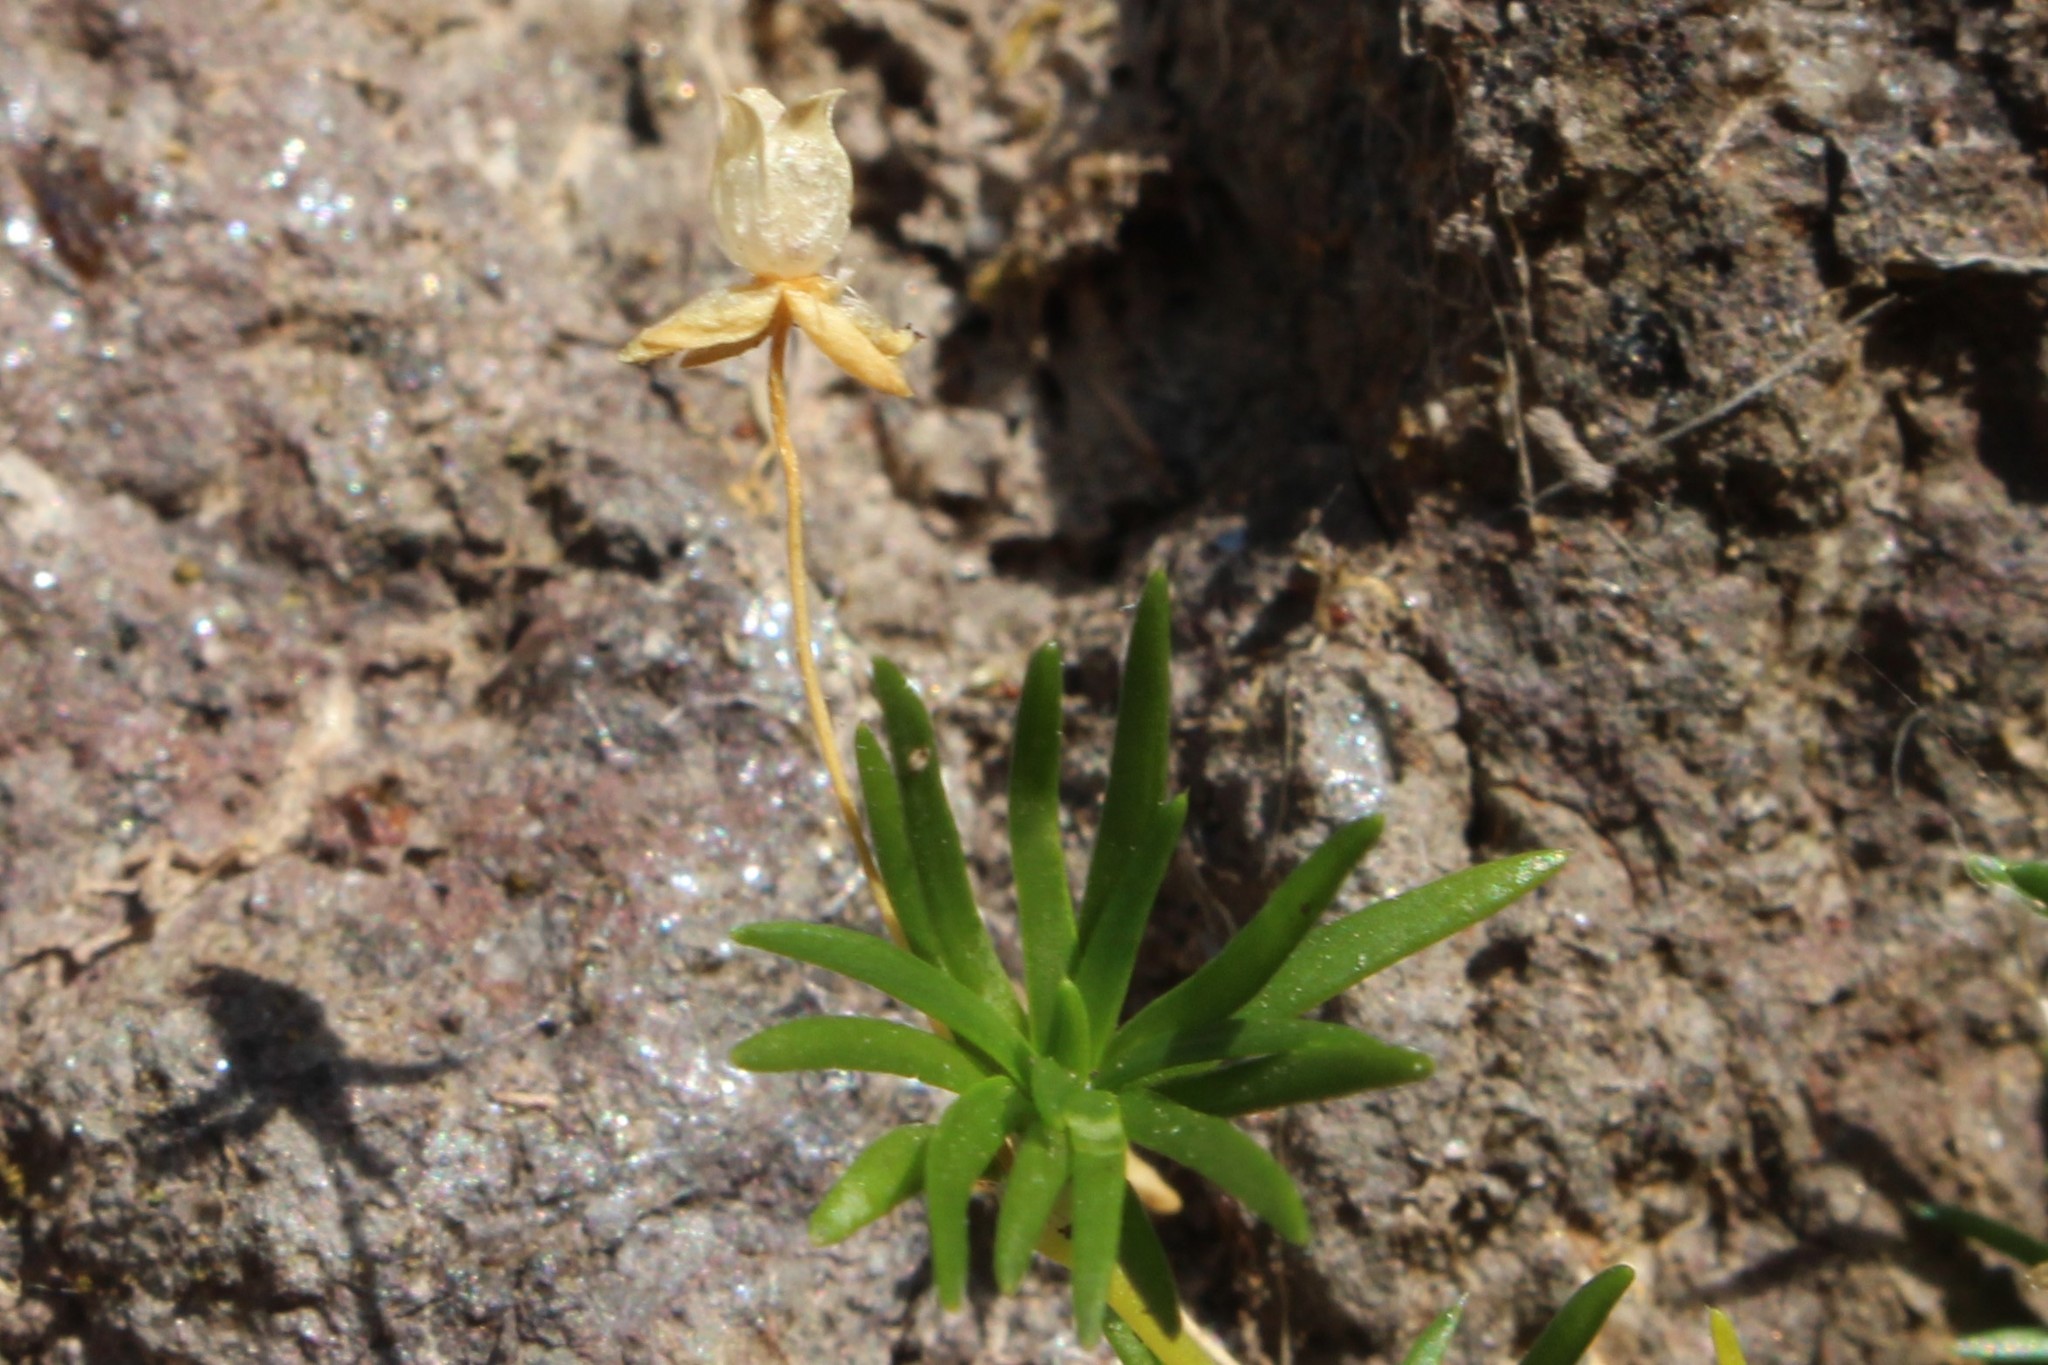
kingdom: Plantae
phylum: Tracheophyta
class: Magnoliopsida
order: Caryophyllales
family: Caryophyllaceae
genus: Sagina
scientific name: Sagina procumbens
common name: Procumbent pearlwort
